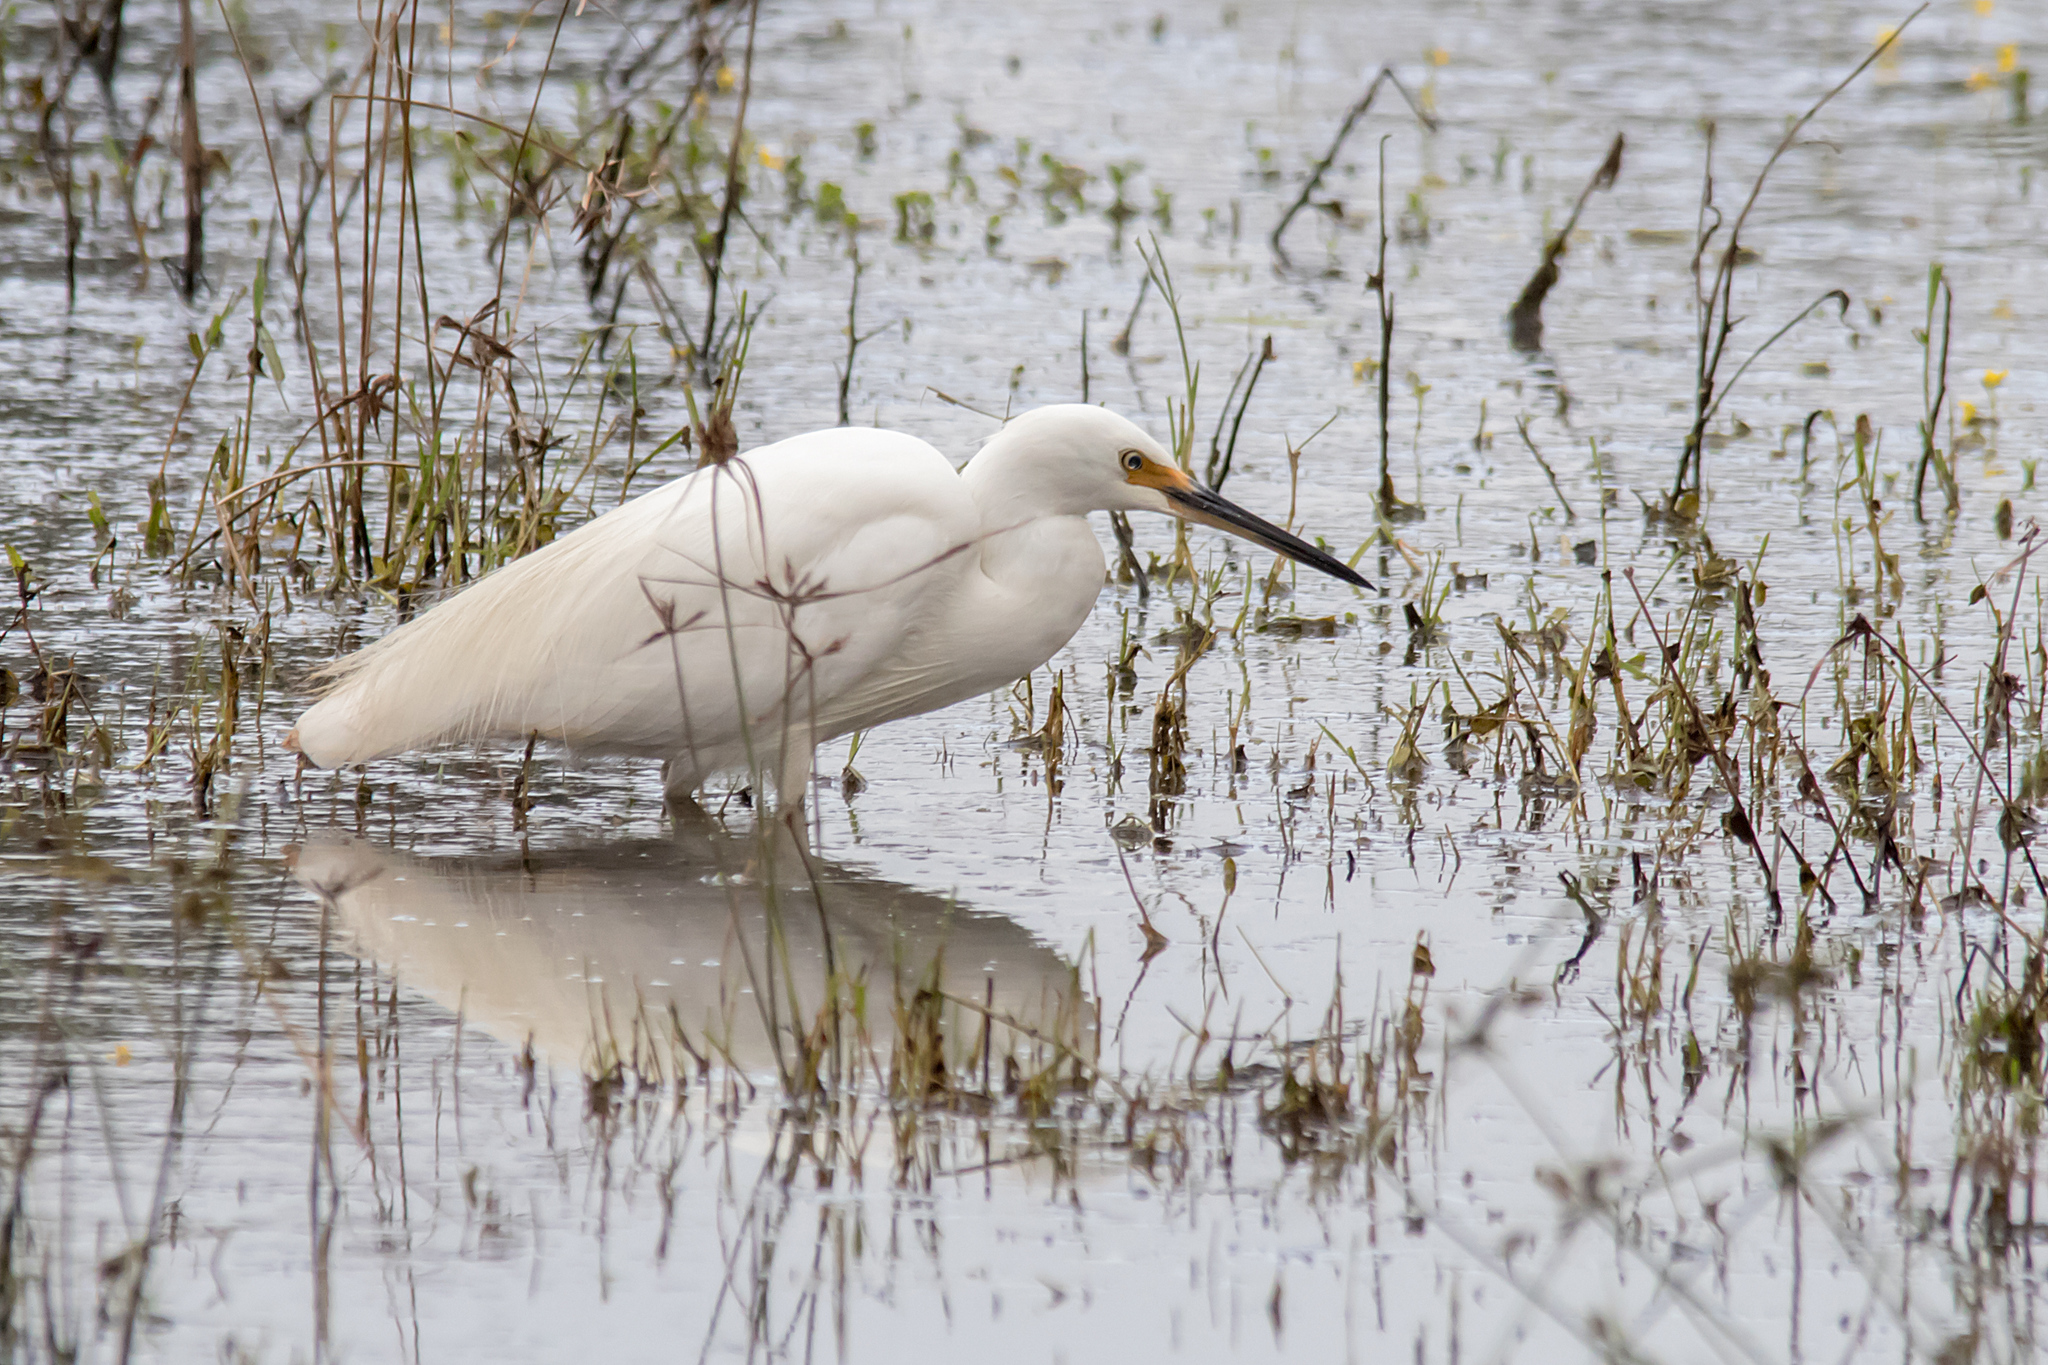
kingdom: Animalia
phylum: Chordata
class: Aves
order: Pelecaniformes
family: Ardeidae
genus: Egretta
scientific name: Egretta garzetta
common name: Little egret
